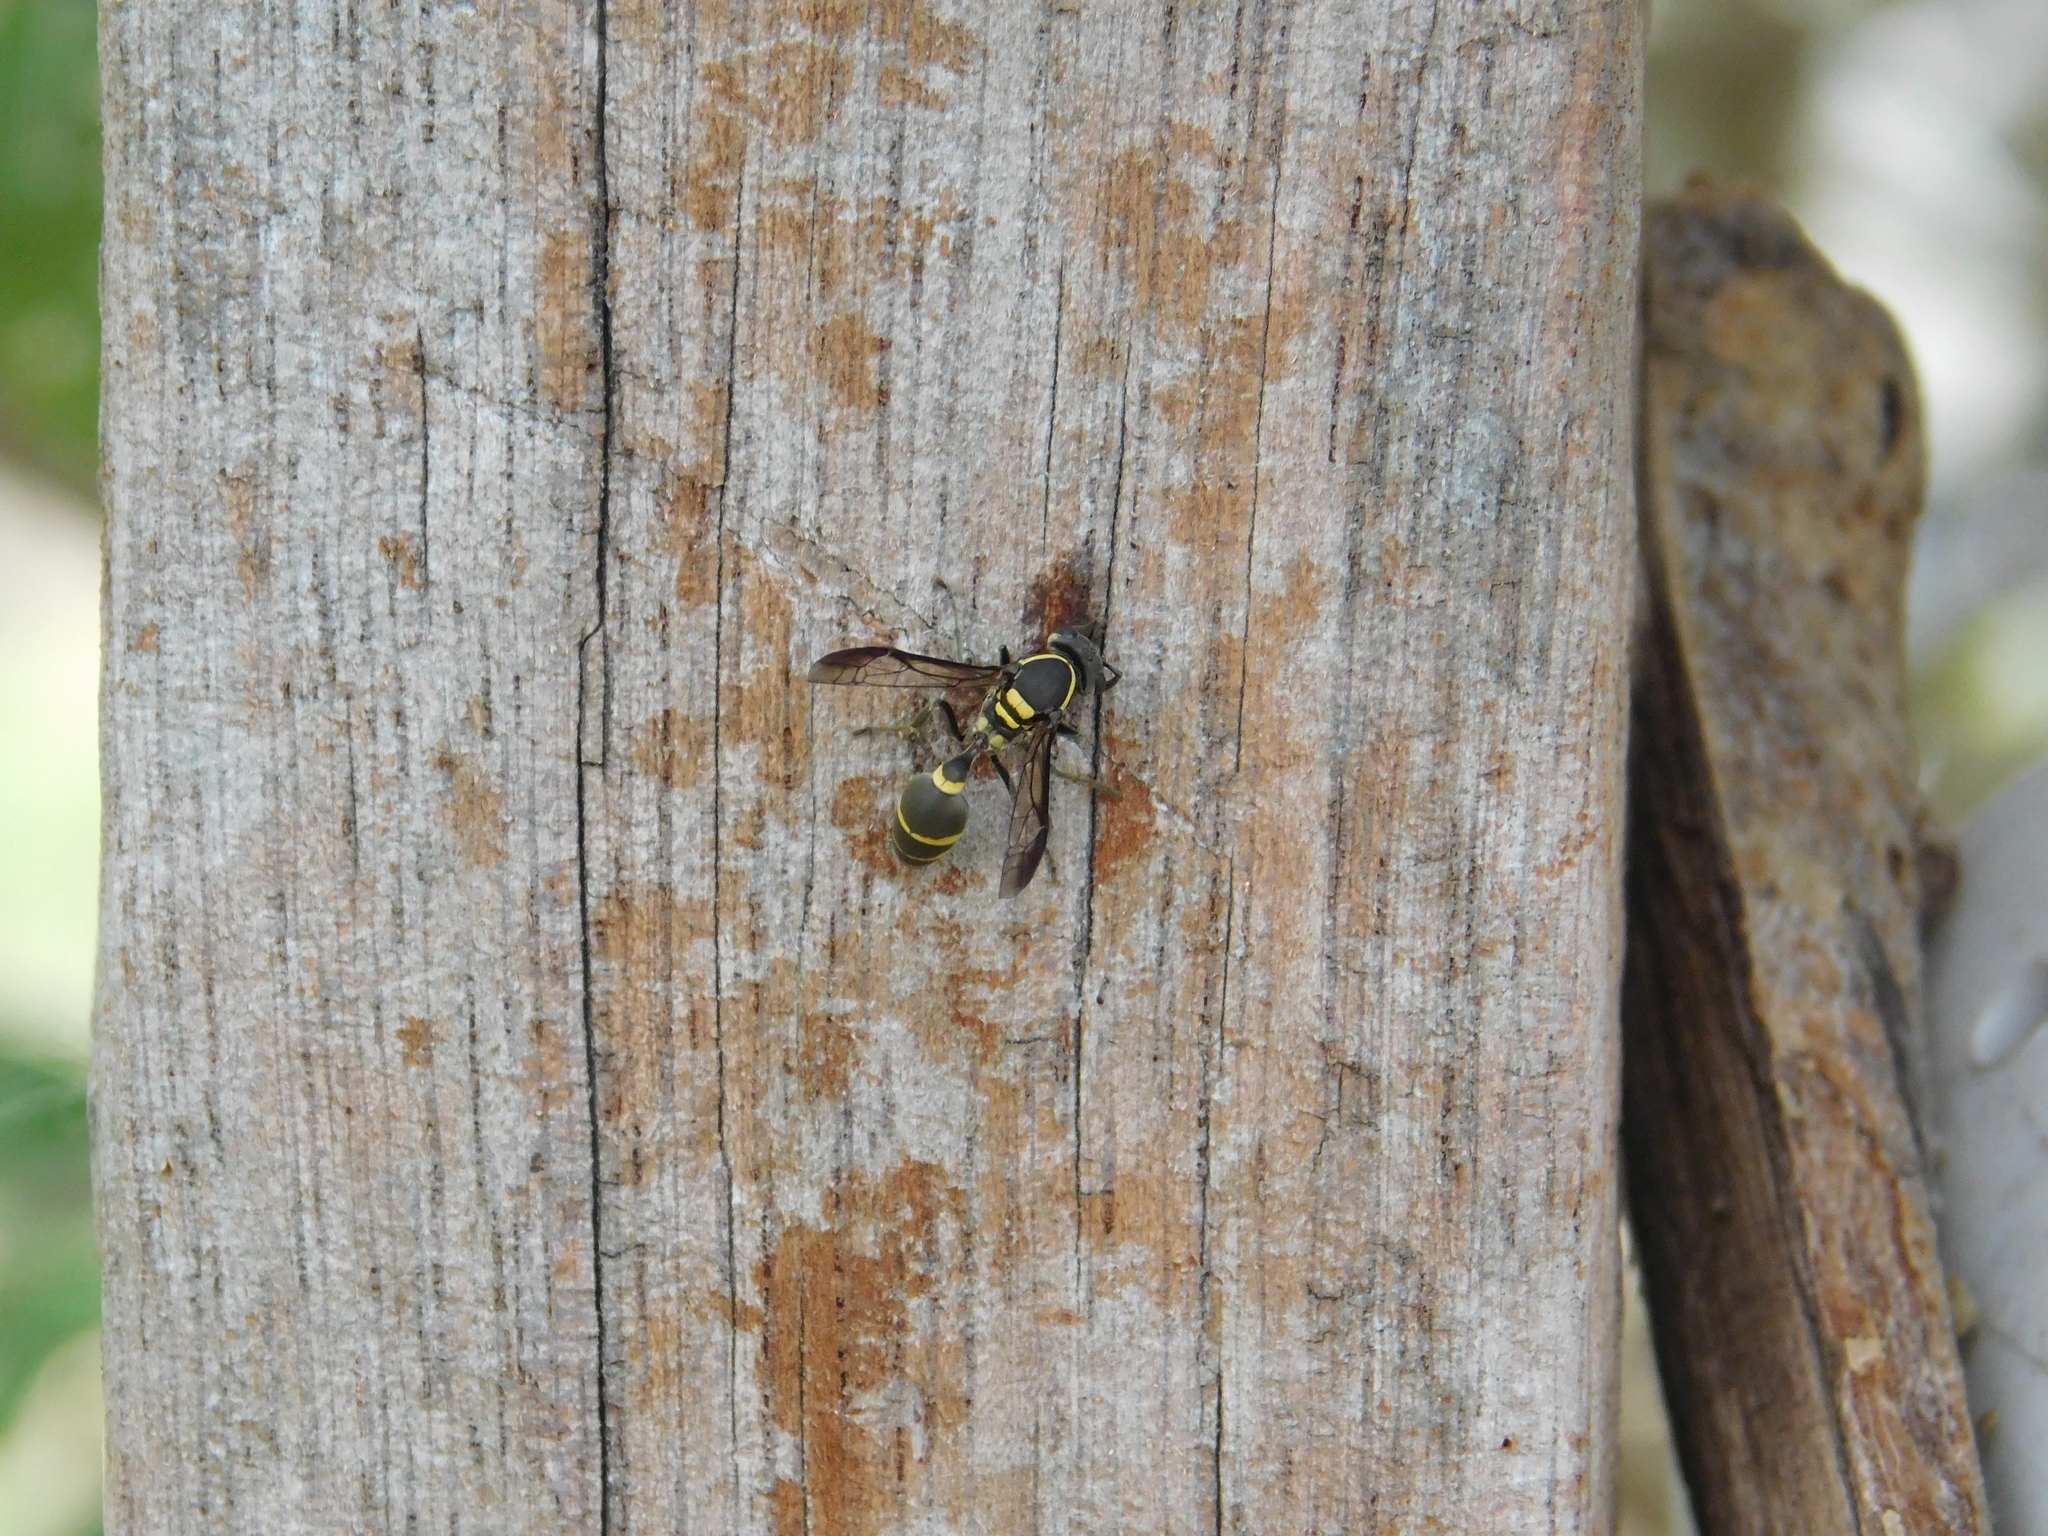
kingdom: Animalia
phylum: Arthropoda
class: Insecta
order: Hymenoptera
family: Eumenidae
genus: Polybia
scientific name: Polybia occidentalis
